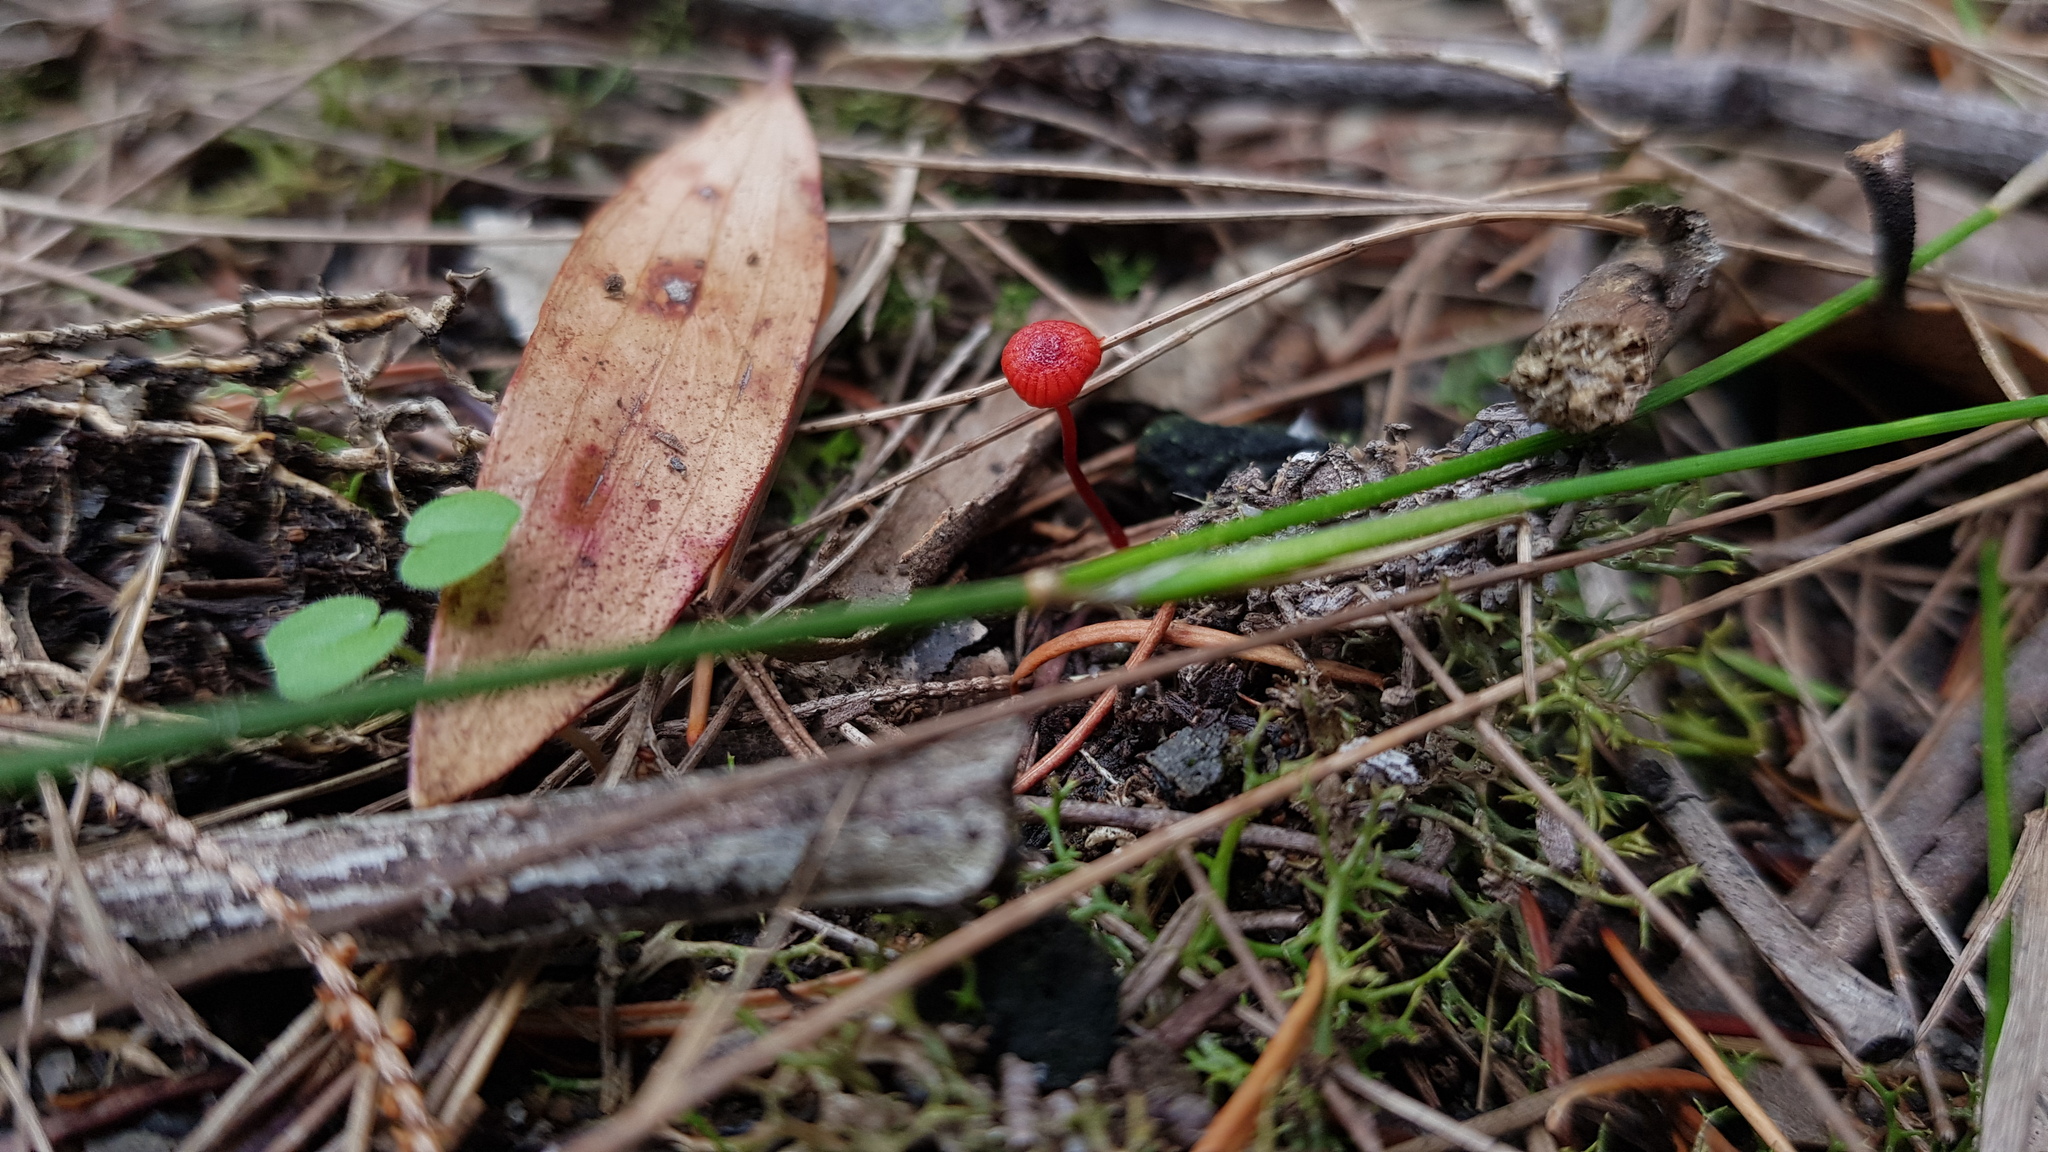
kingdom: Fungi
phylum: Basidiomycota
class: Agaricomycetes
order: Agaricales
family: Mycenaceae
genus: Cruentomycena
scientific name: Cruentomycena viscidocruenta
